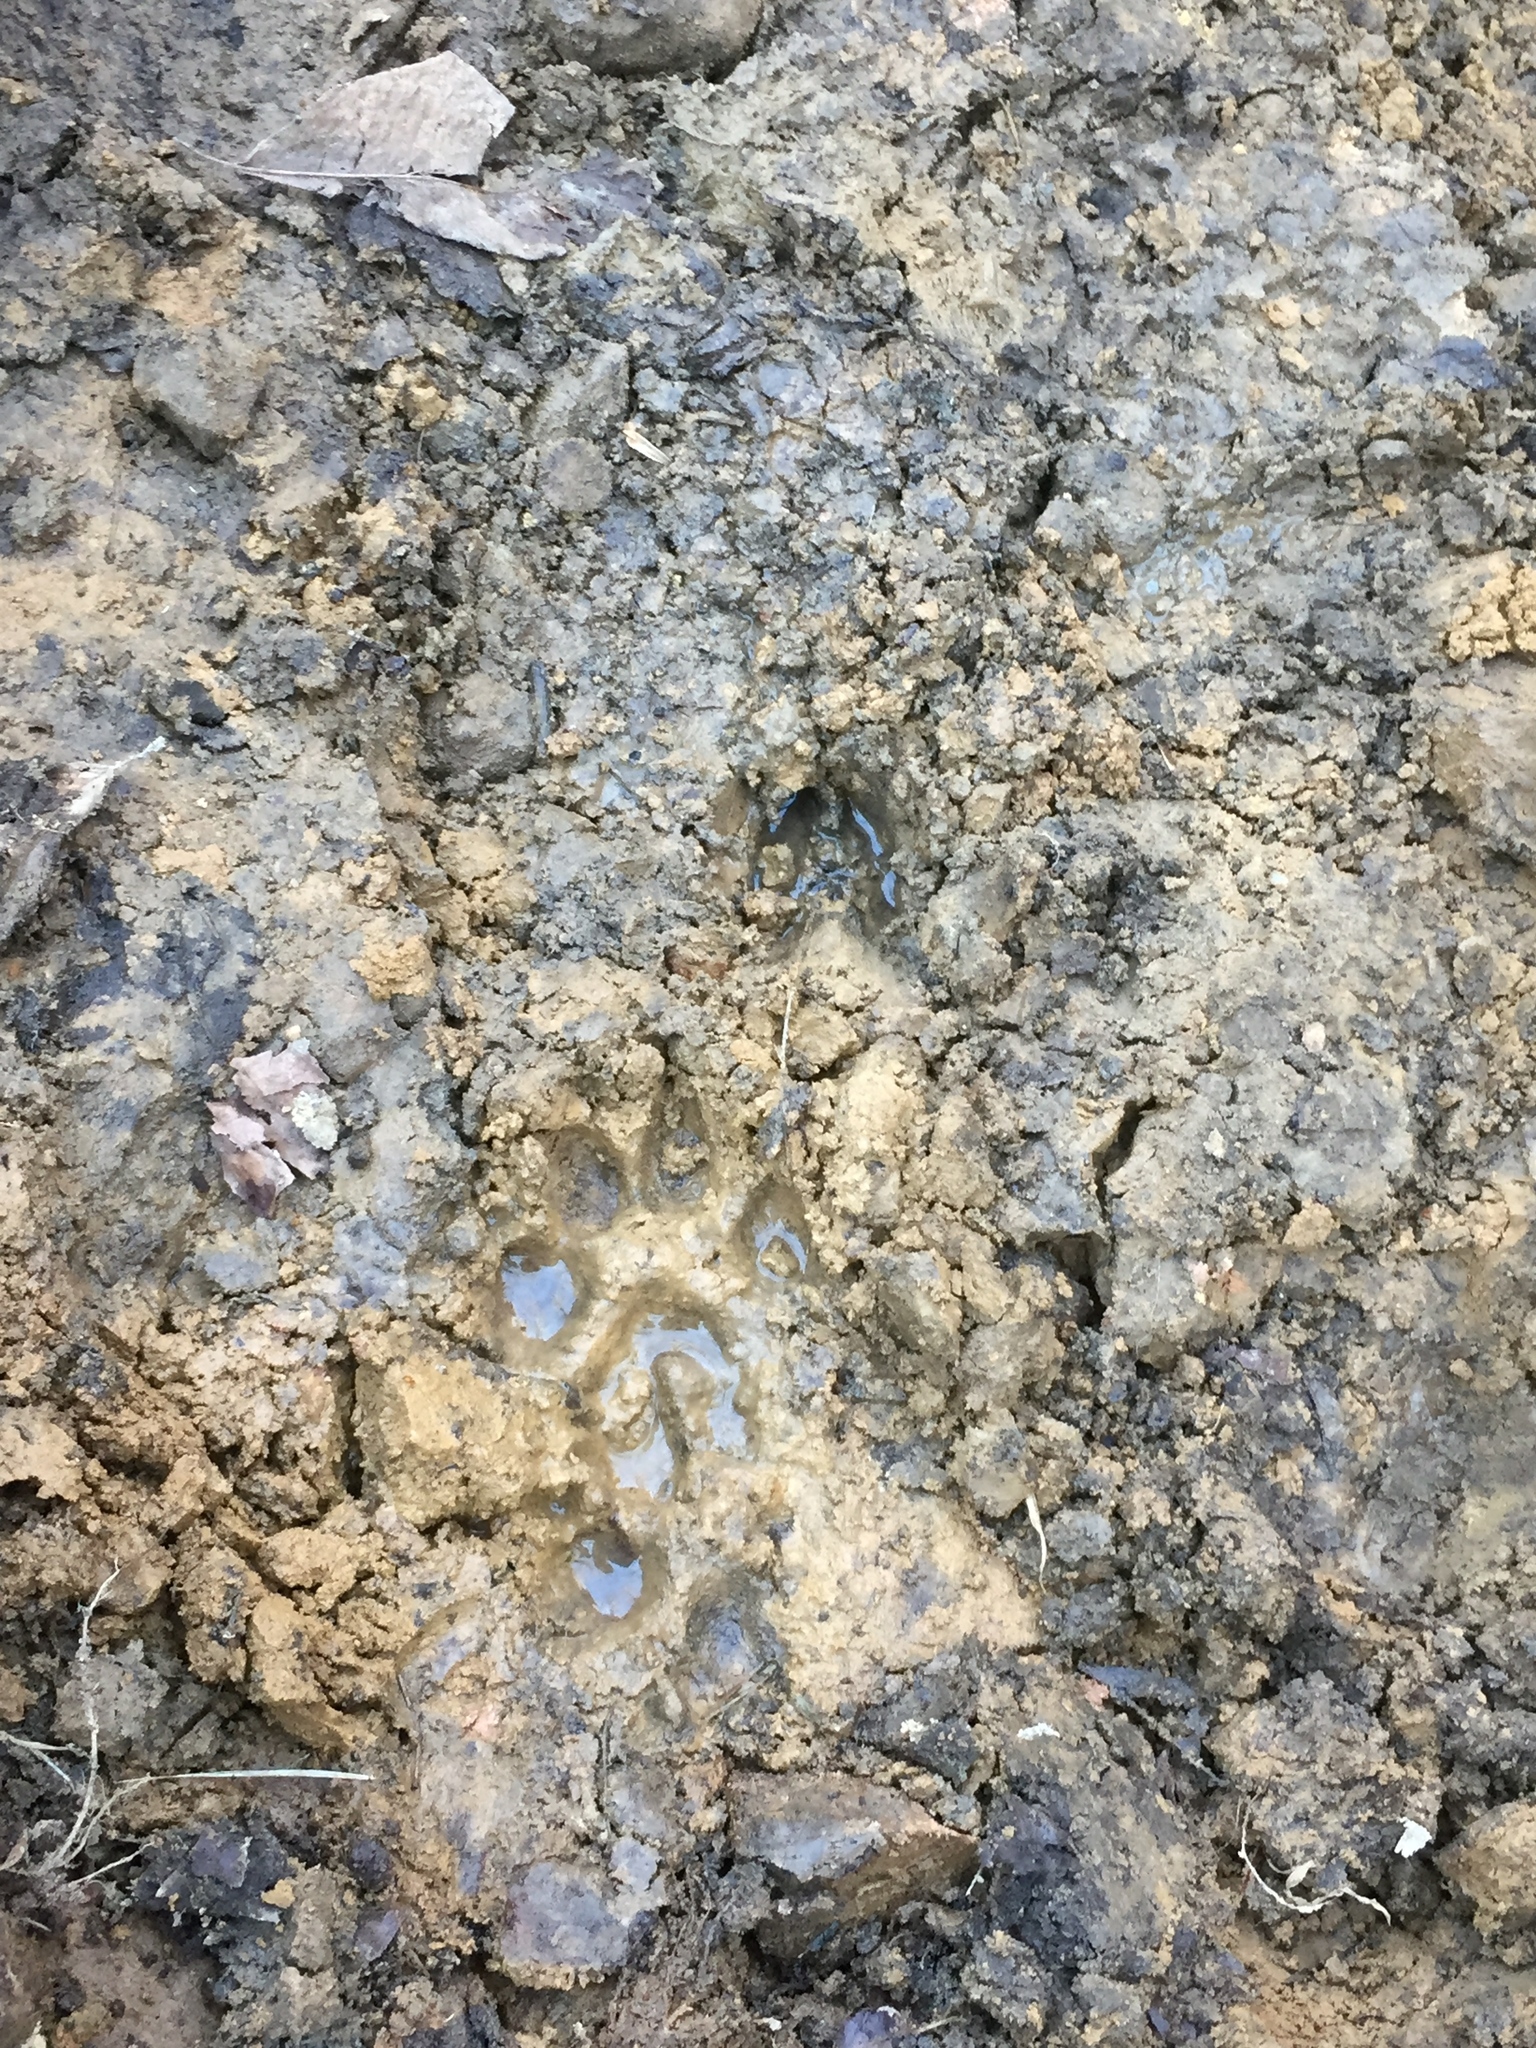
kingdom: Animalia
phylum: Chordata
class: Mammalia
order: Carnivora
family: Canidae
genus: Canis
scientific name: Canis lupus
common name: Gray wolf
